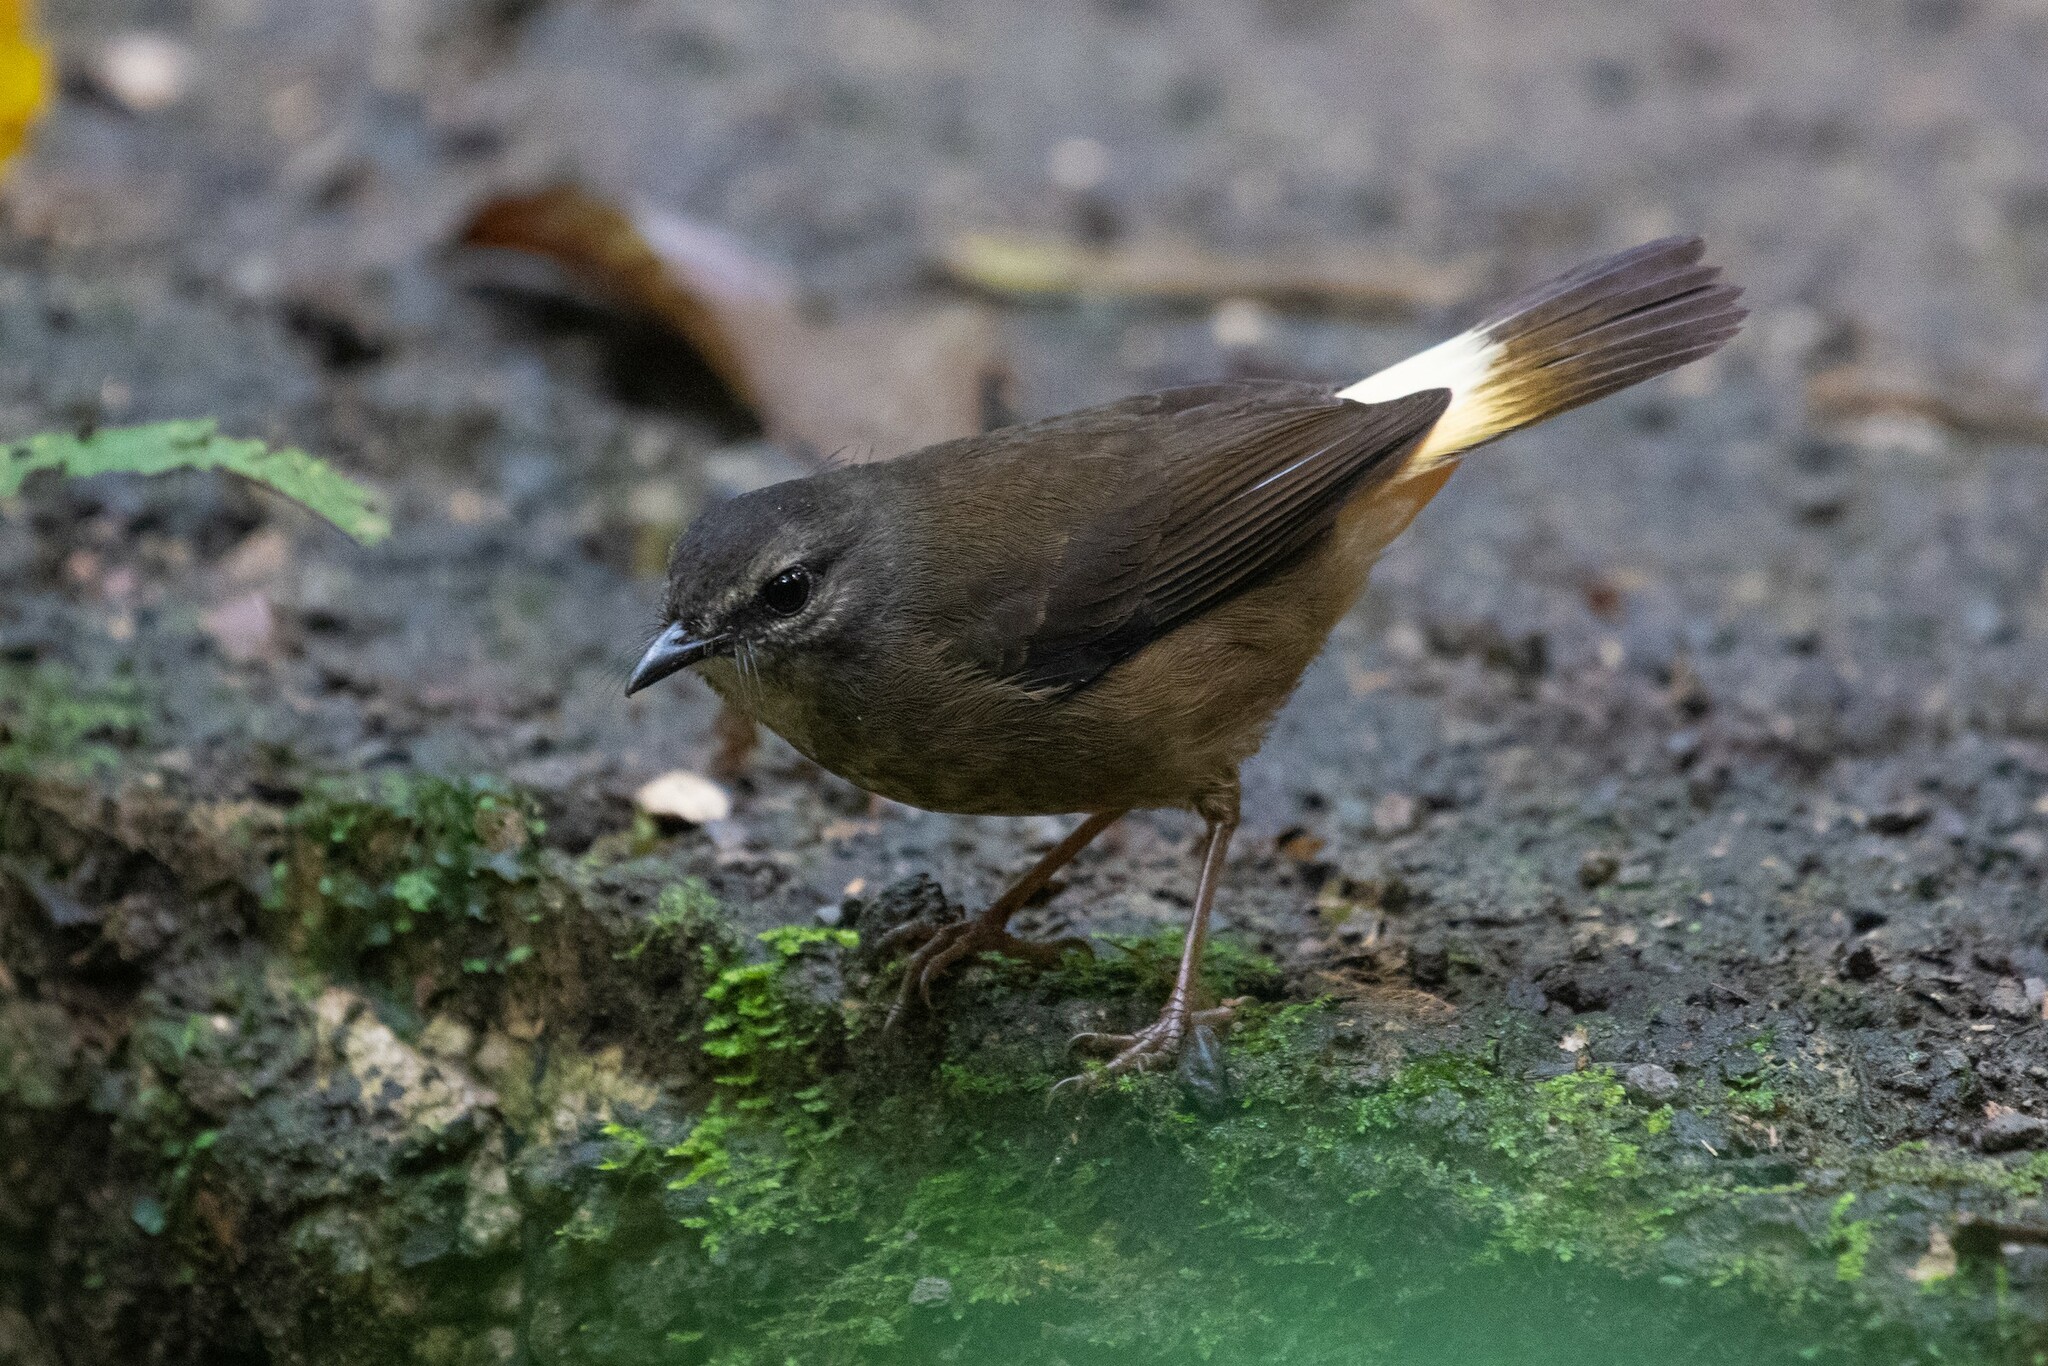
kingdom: Animalia
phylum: Chordata
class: Aves
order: Passeriformes
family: Parulidae
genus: Myiothlypis
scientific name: Myiothlypis fulvicauda
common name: Buff-rumped warbler
